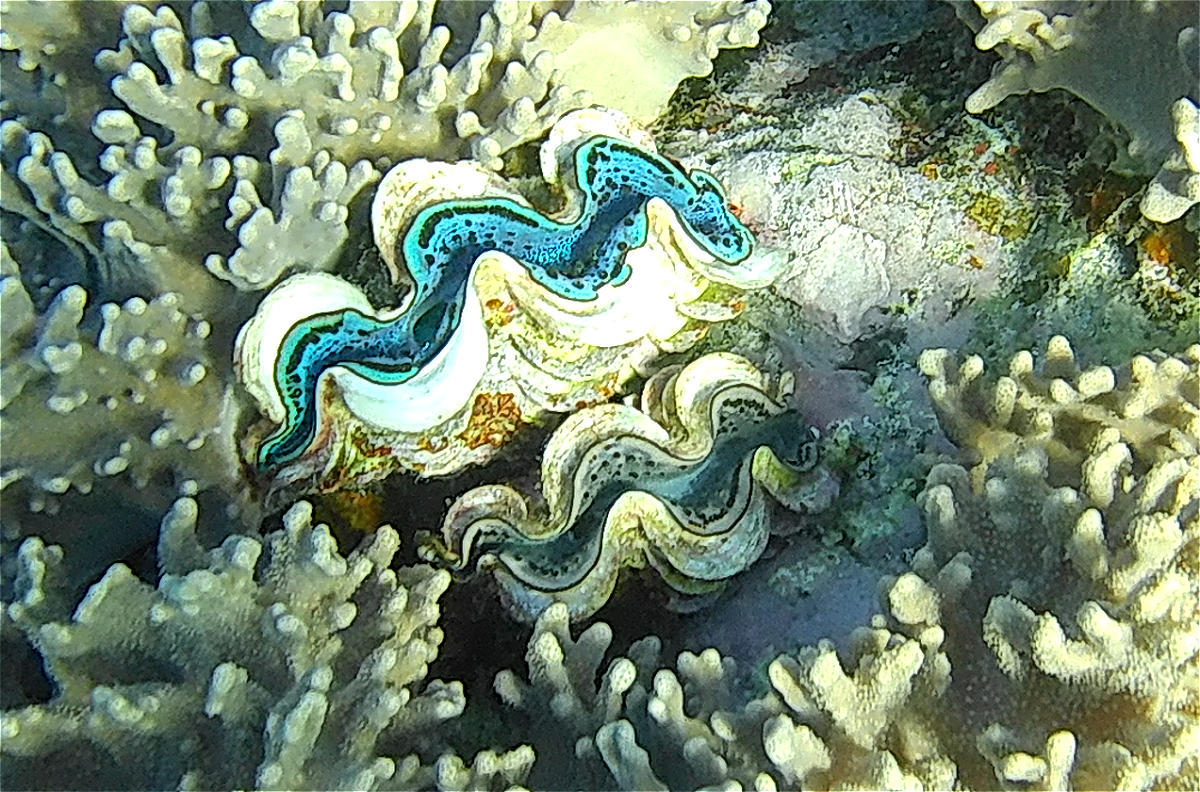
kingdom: Animalia
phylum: Mollusca
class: Bivalvia
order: Cardiida
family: Cardiidae
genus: Tridacna
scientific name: Tridacna maxima
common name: Small giant clam
